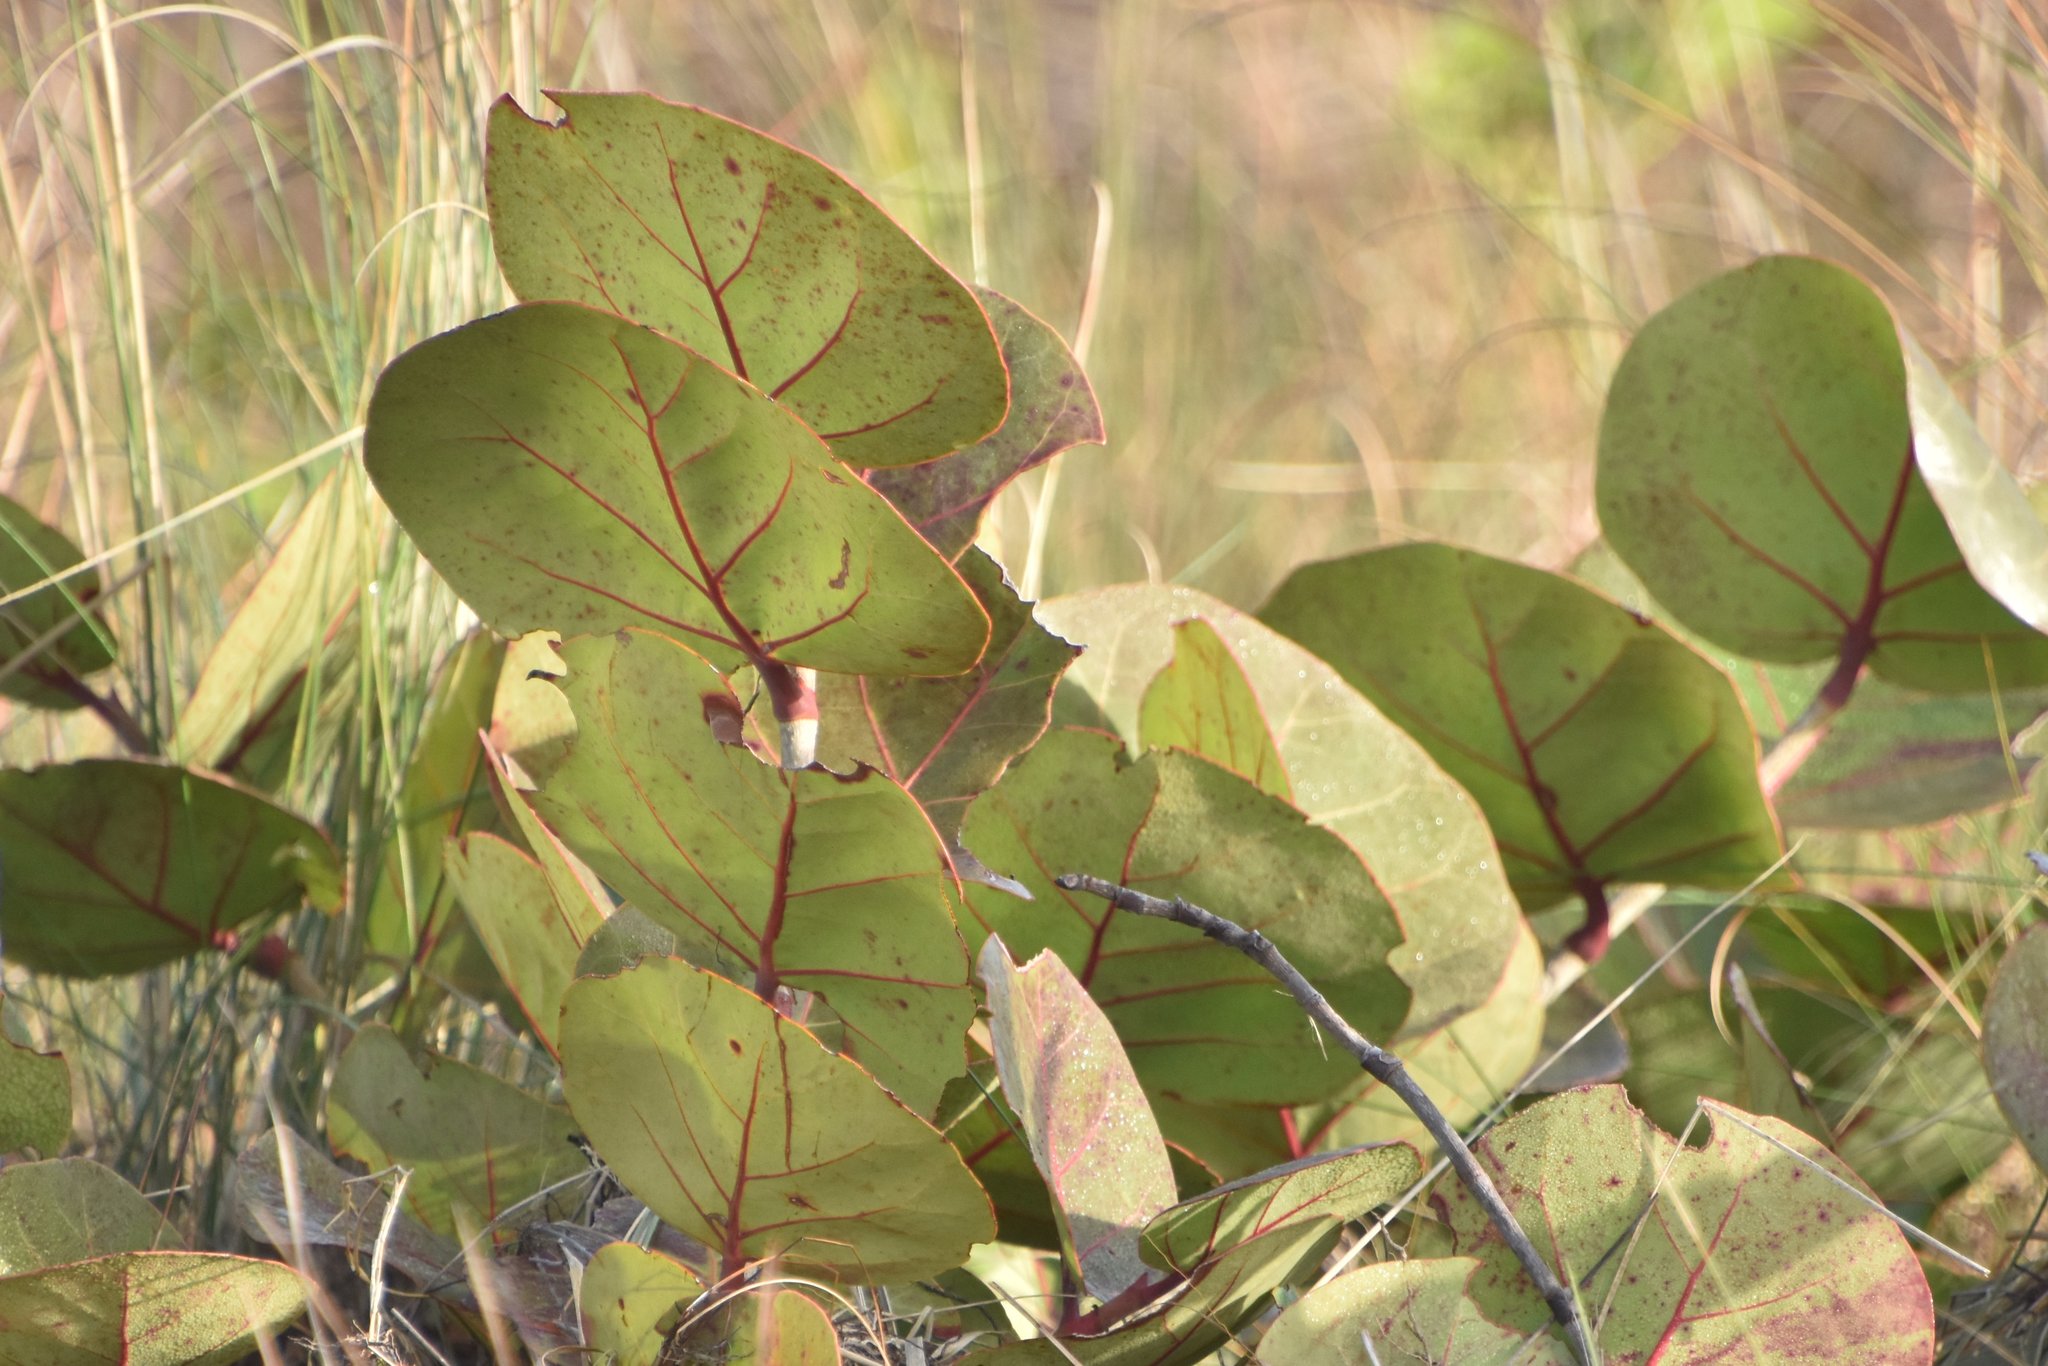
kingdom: Plantae
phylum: Tracheophyta
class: Magnoliopsida
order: Caryophyllales
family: Polygonaceae
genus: Coccoloba
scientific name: Coccoloba uvifera
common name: Seagrape
